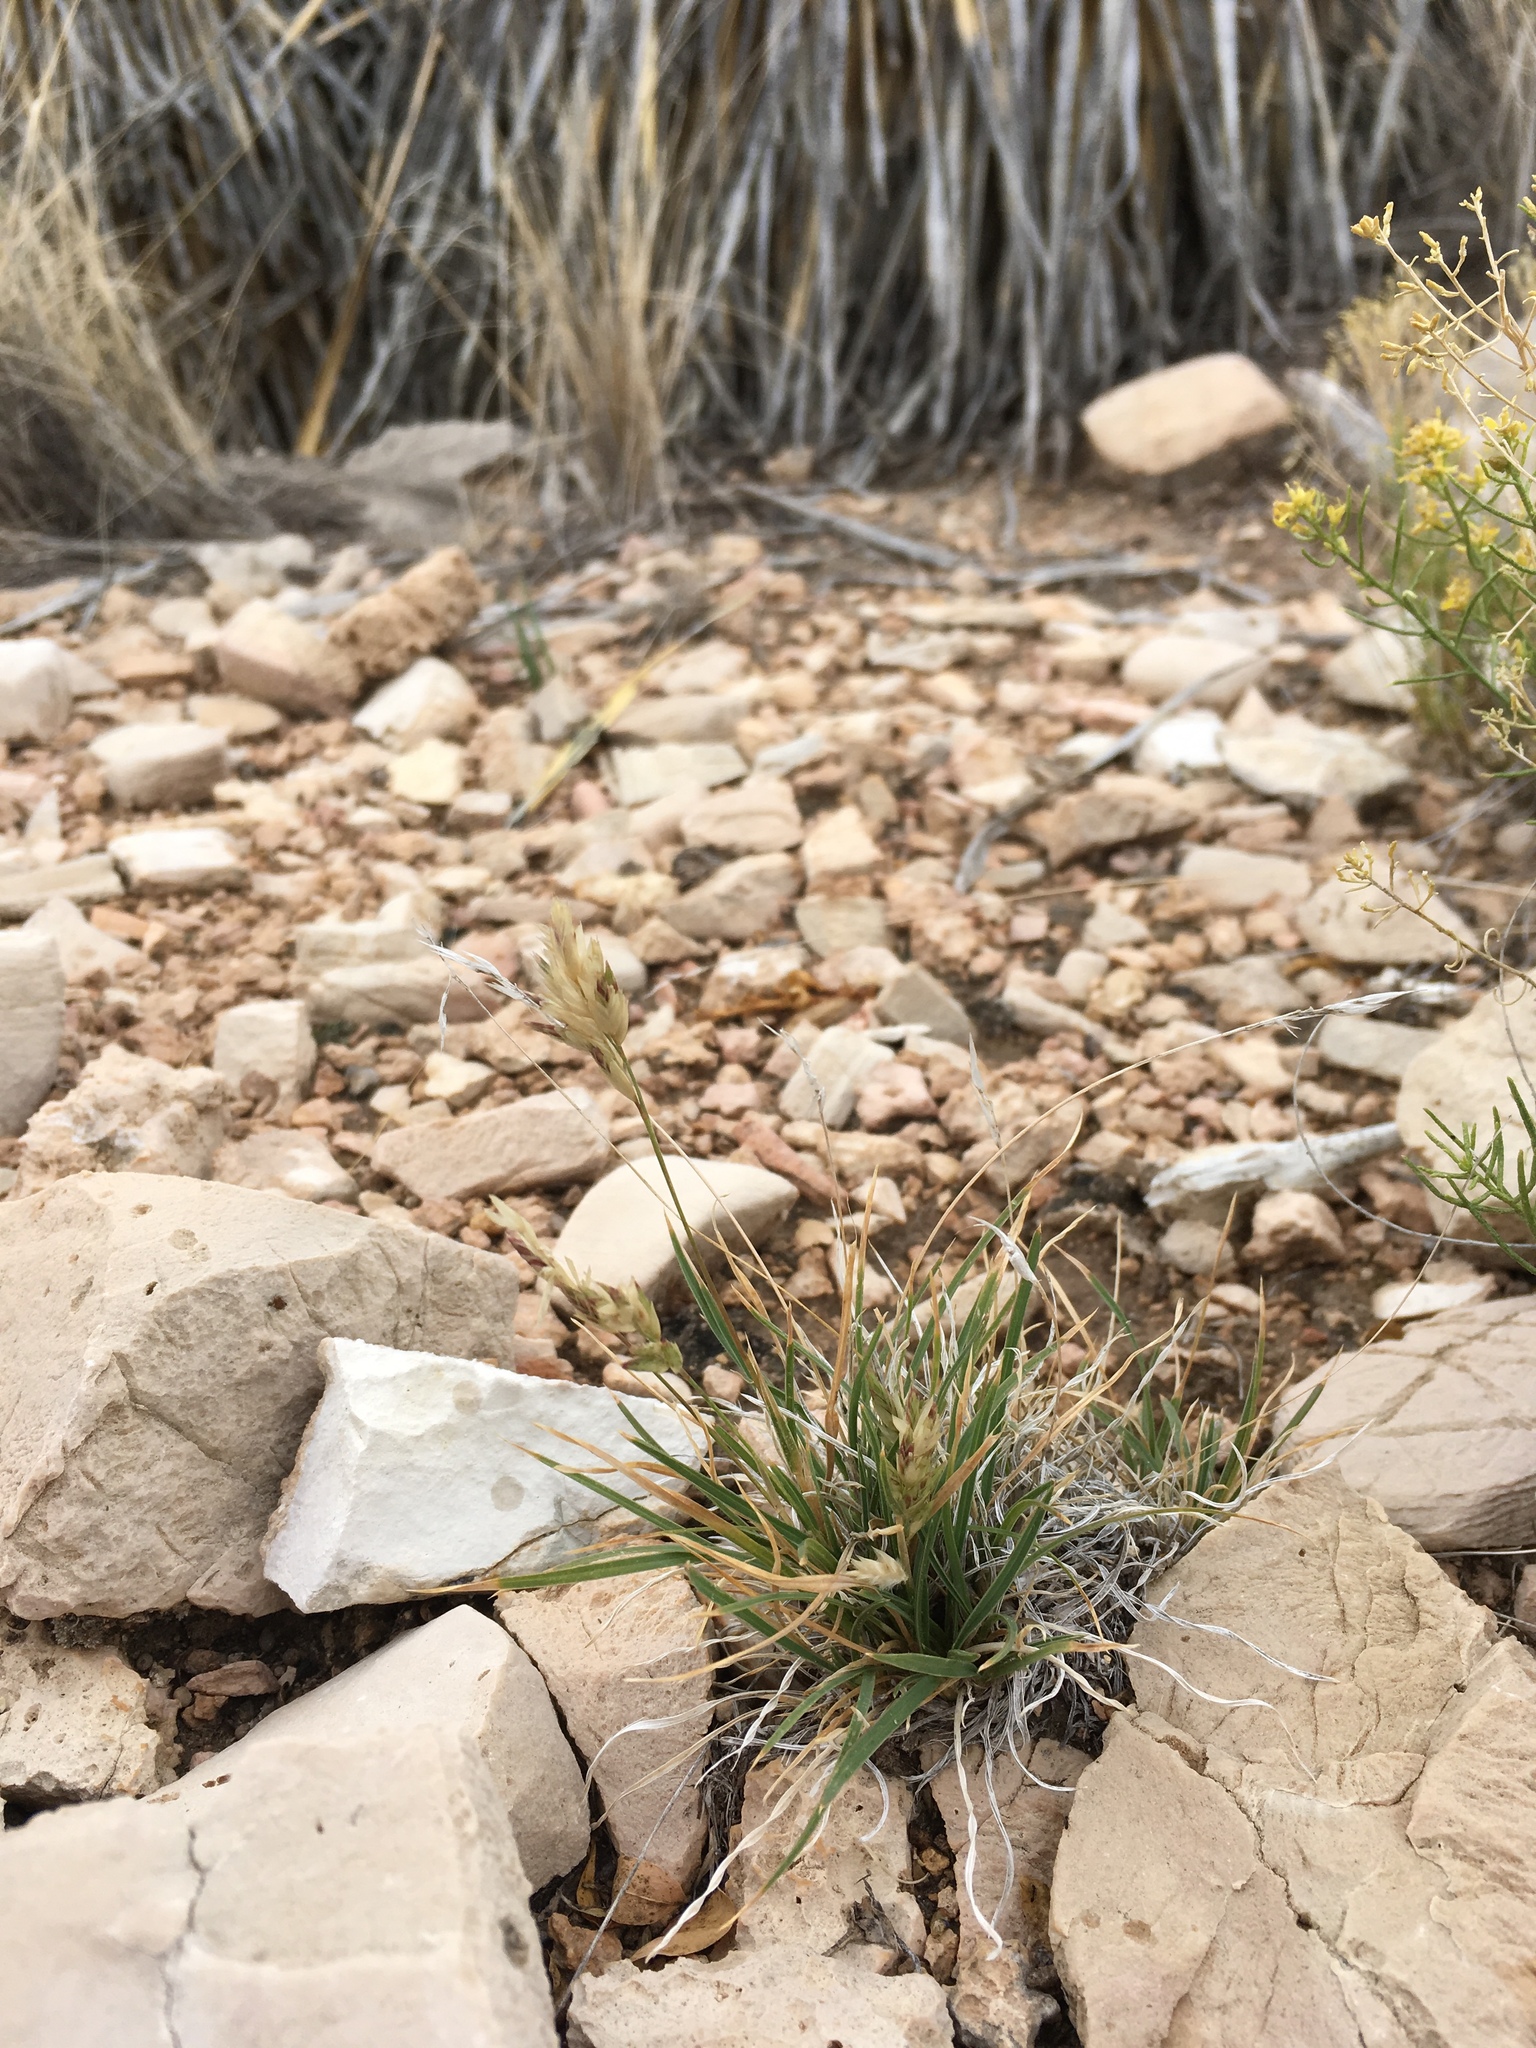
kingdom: Plantae
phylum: Tracheophyta
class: Liliopsida
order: Poales
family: Poaceae
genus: Erioneuron
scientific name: Erioneuron avenaceum
